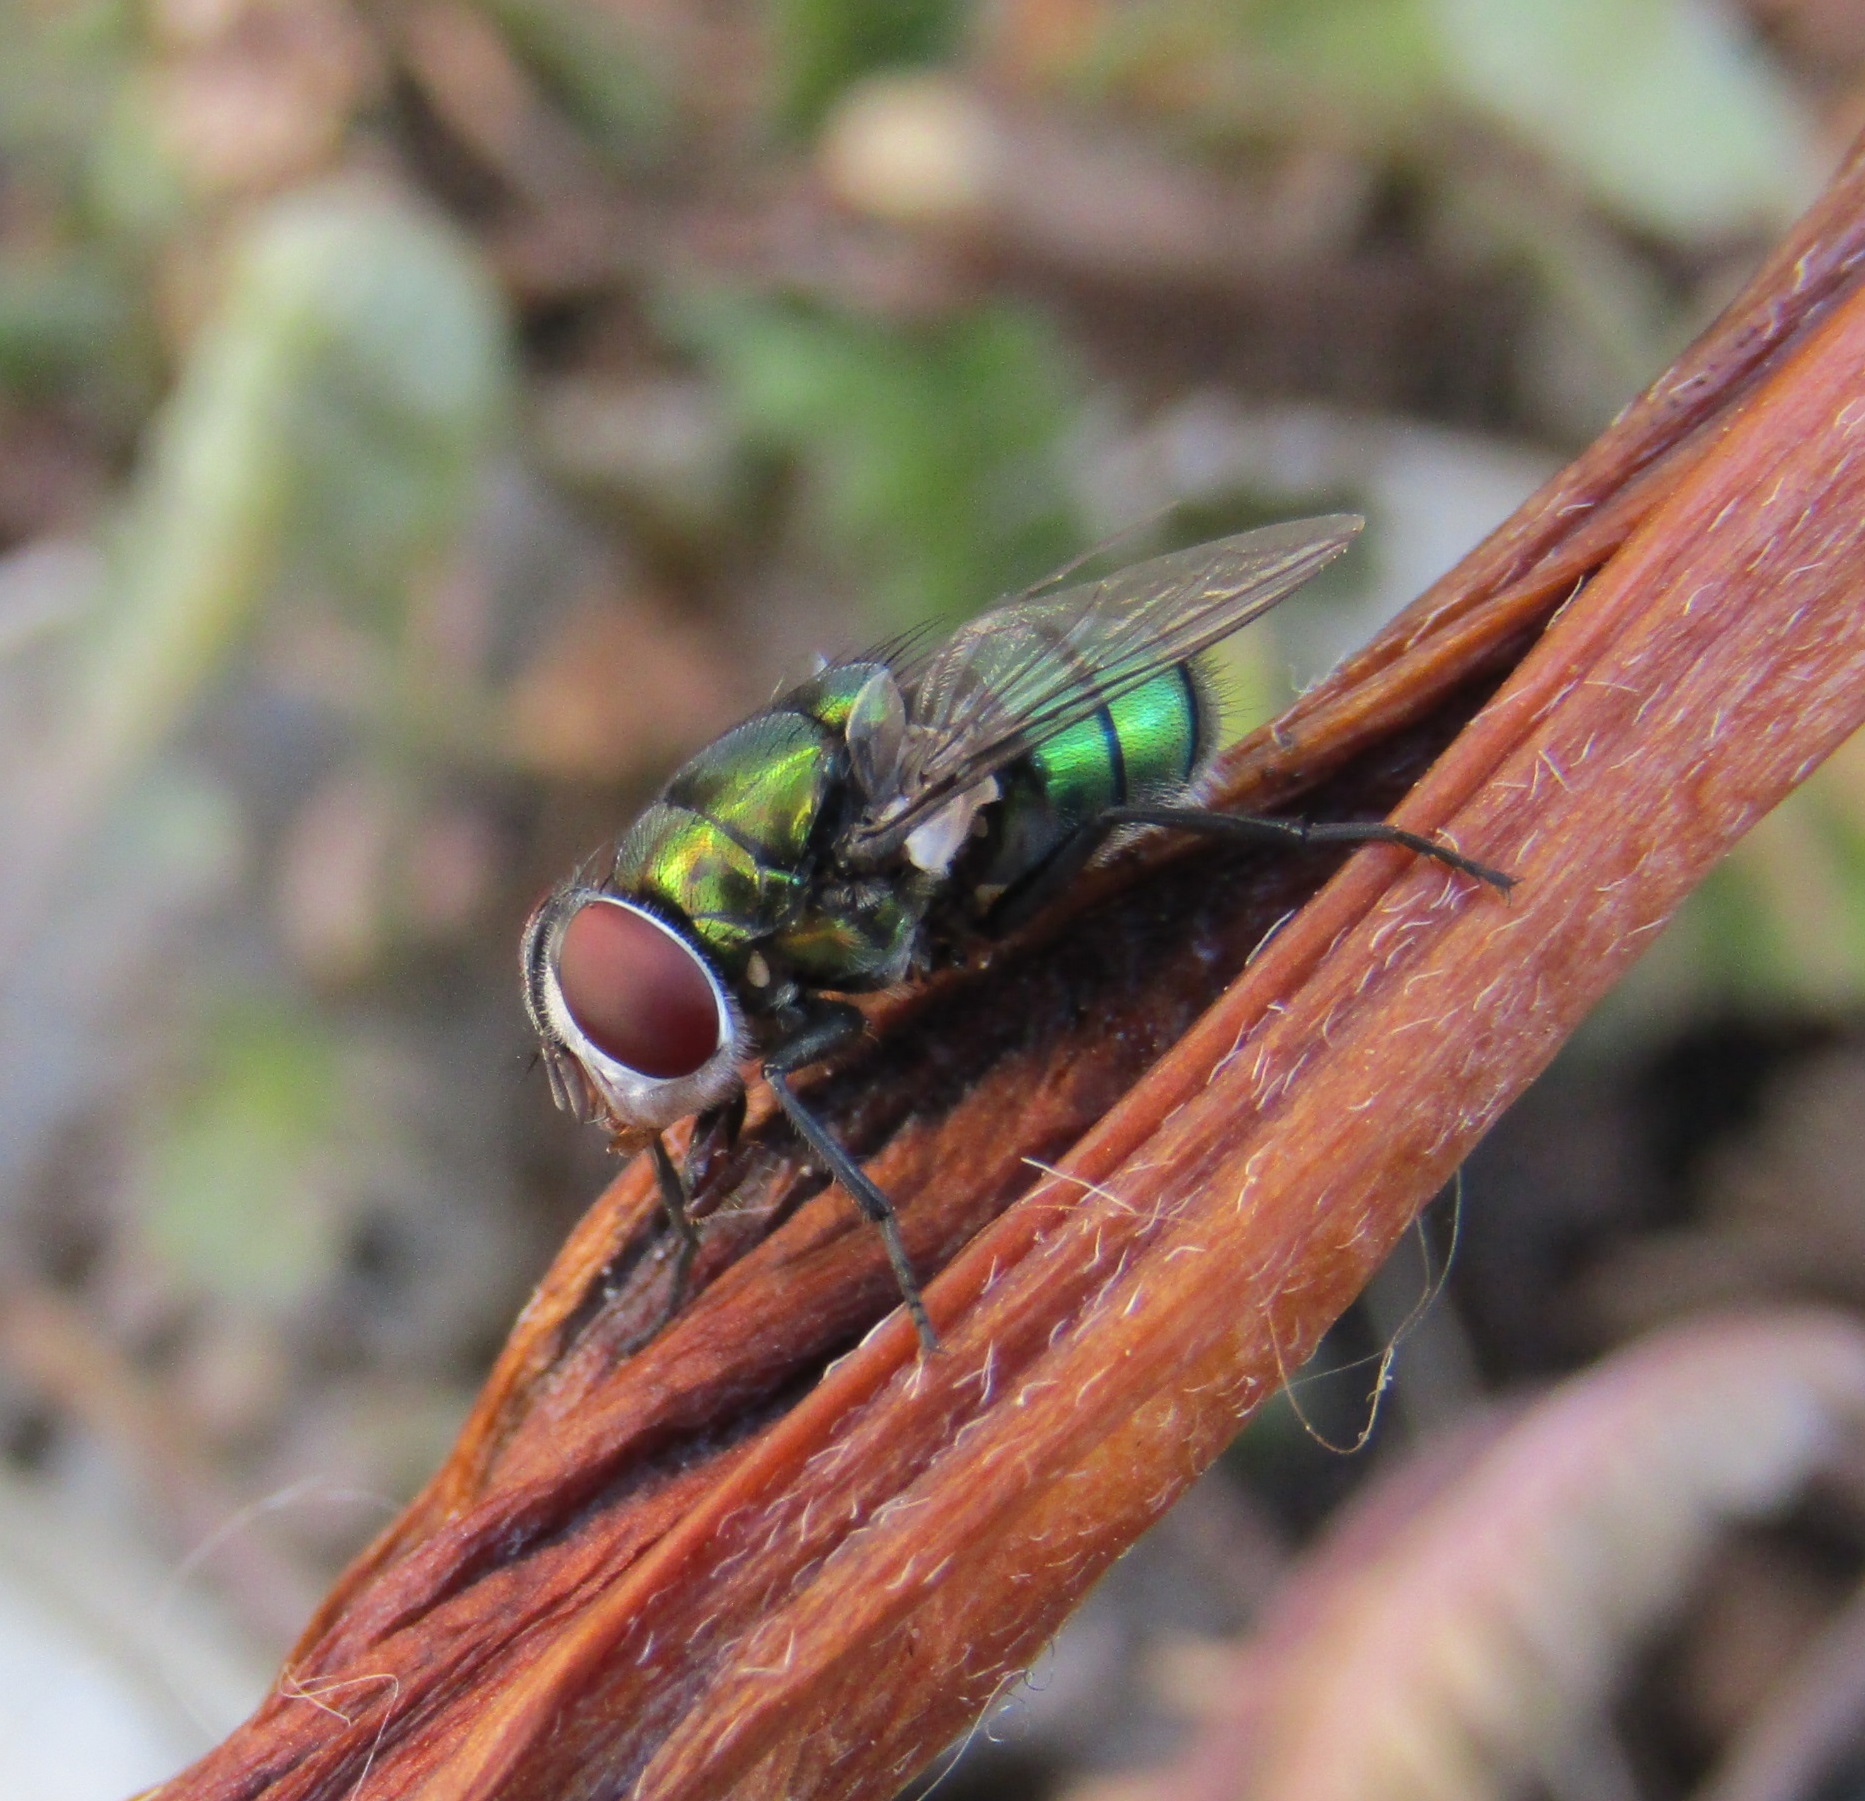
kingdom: Animalia
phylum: Arthropoda
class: Insecta
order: Diptera
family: Calliphoridae
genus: Chrysomya
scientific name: Chrysomya rufifacies
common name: Blow fly
